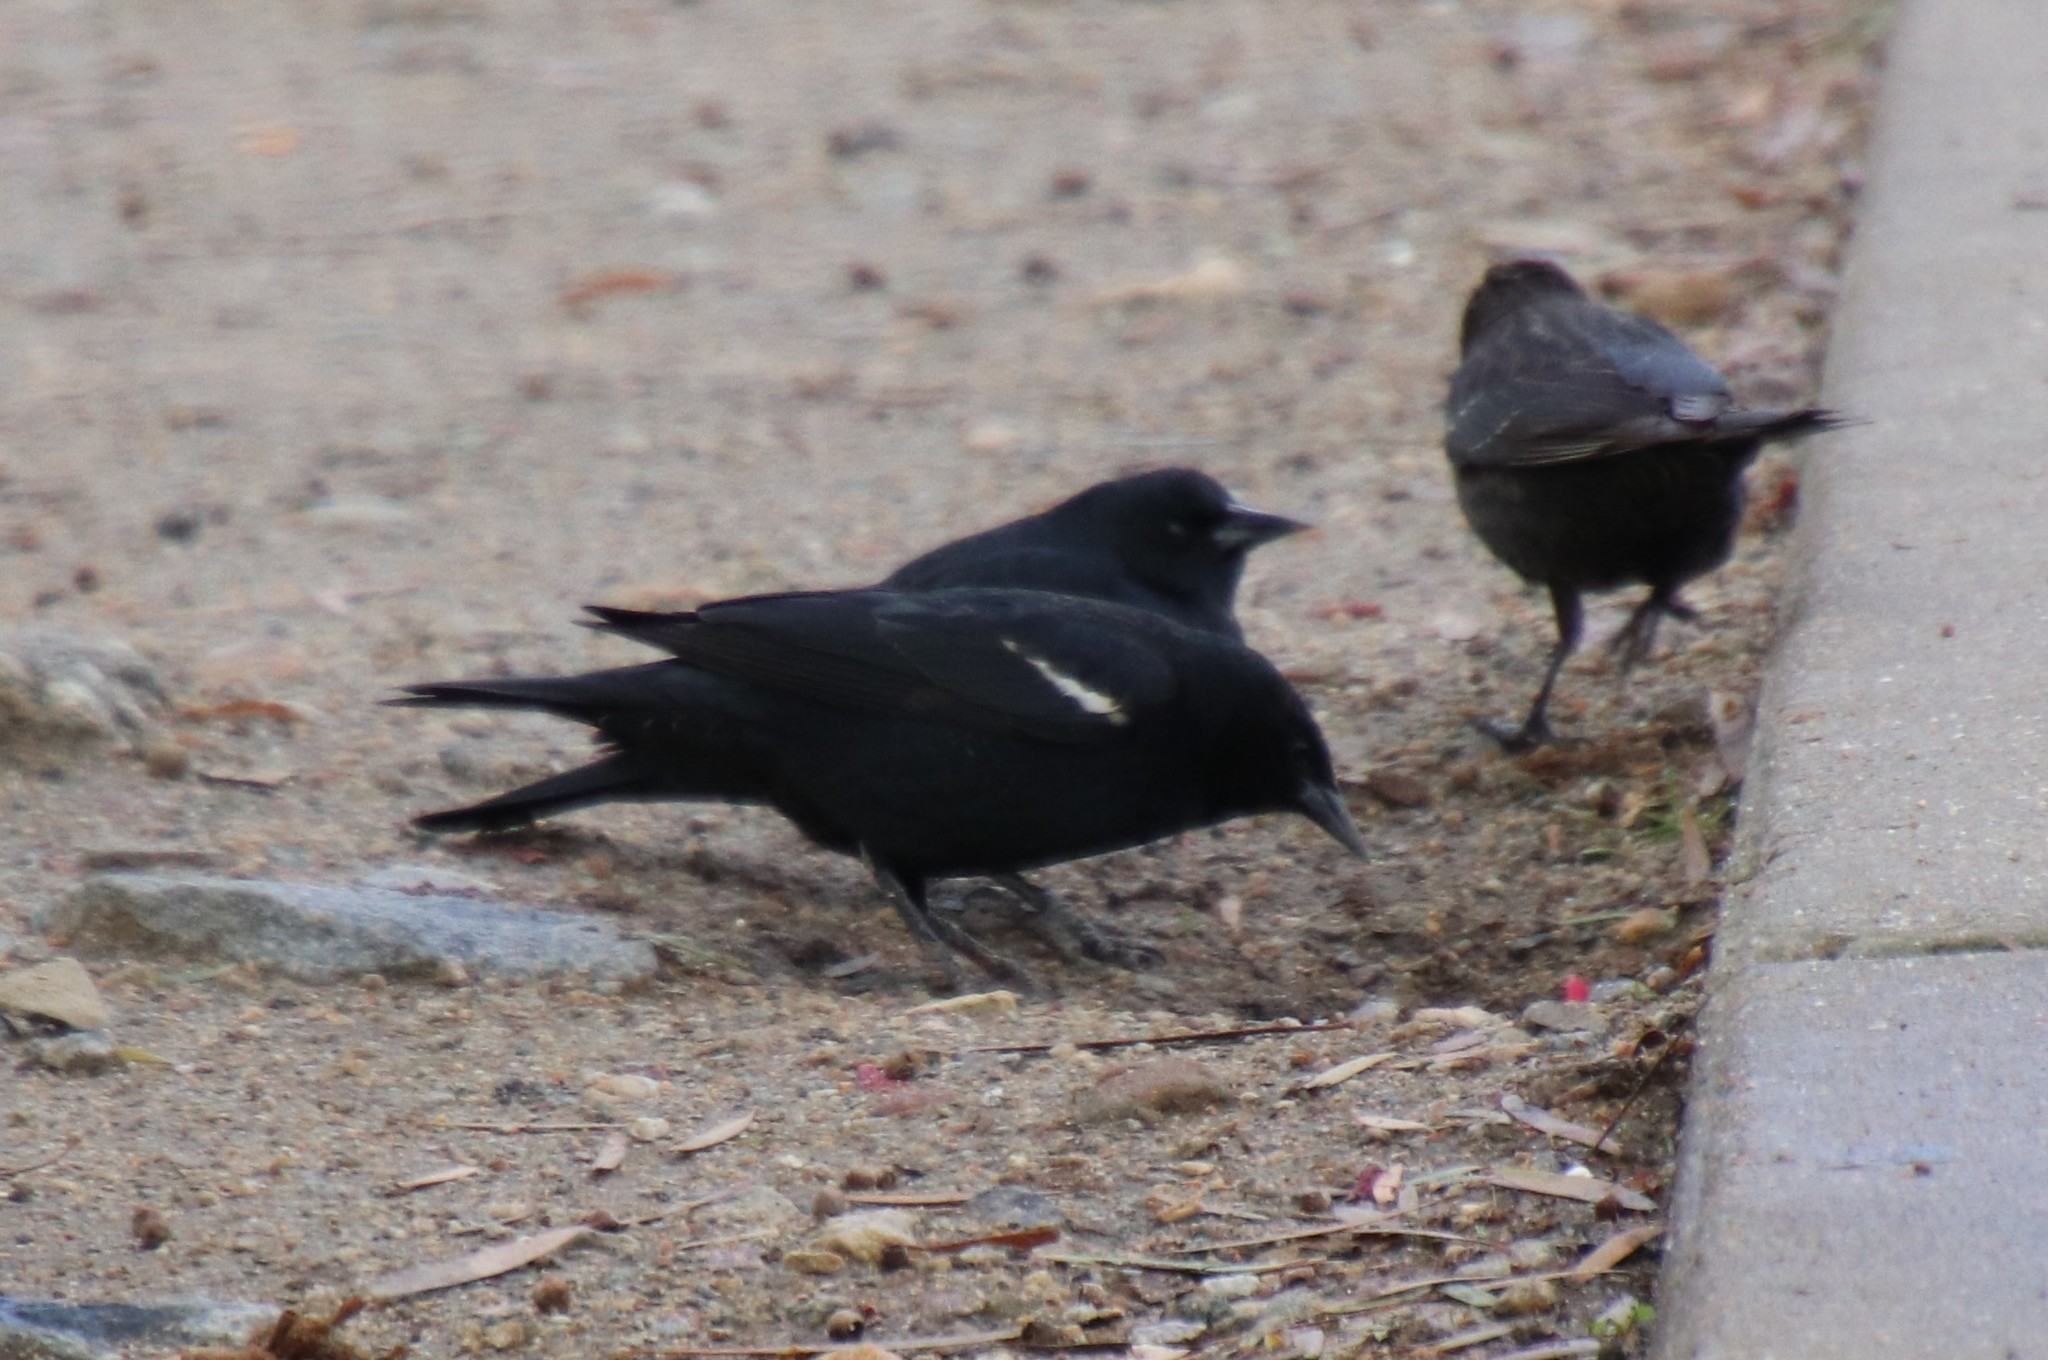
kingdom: Animalia
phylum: Chordata
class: Aves
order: Passeriformes
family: Icteridae
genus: Agelaius
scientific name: Agelaius tricolor
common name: Tricolored blackbird
